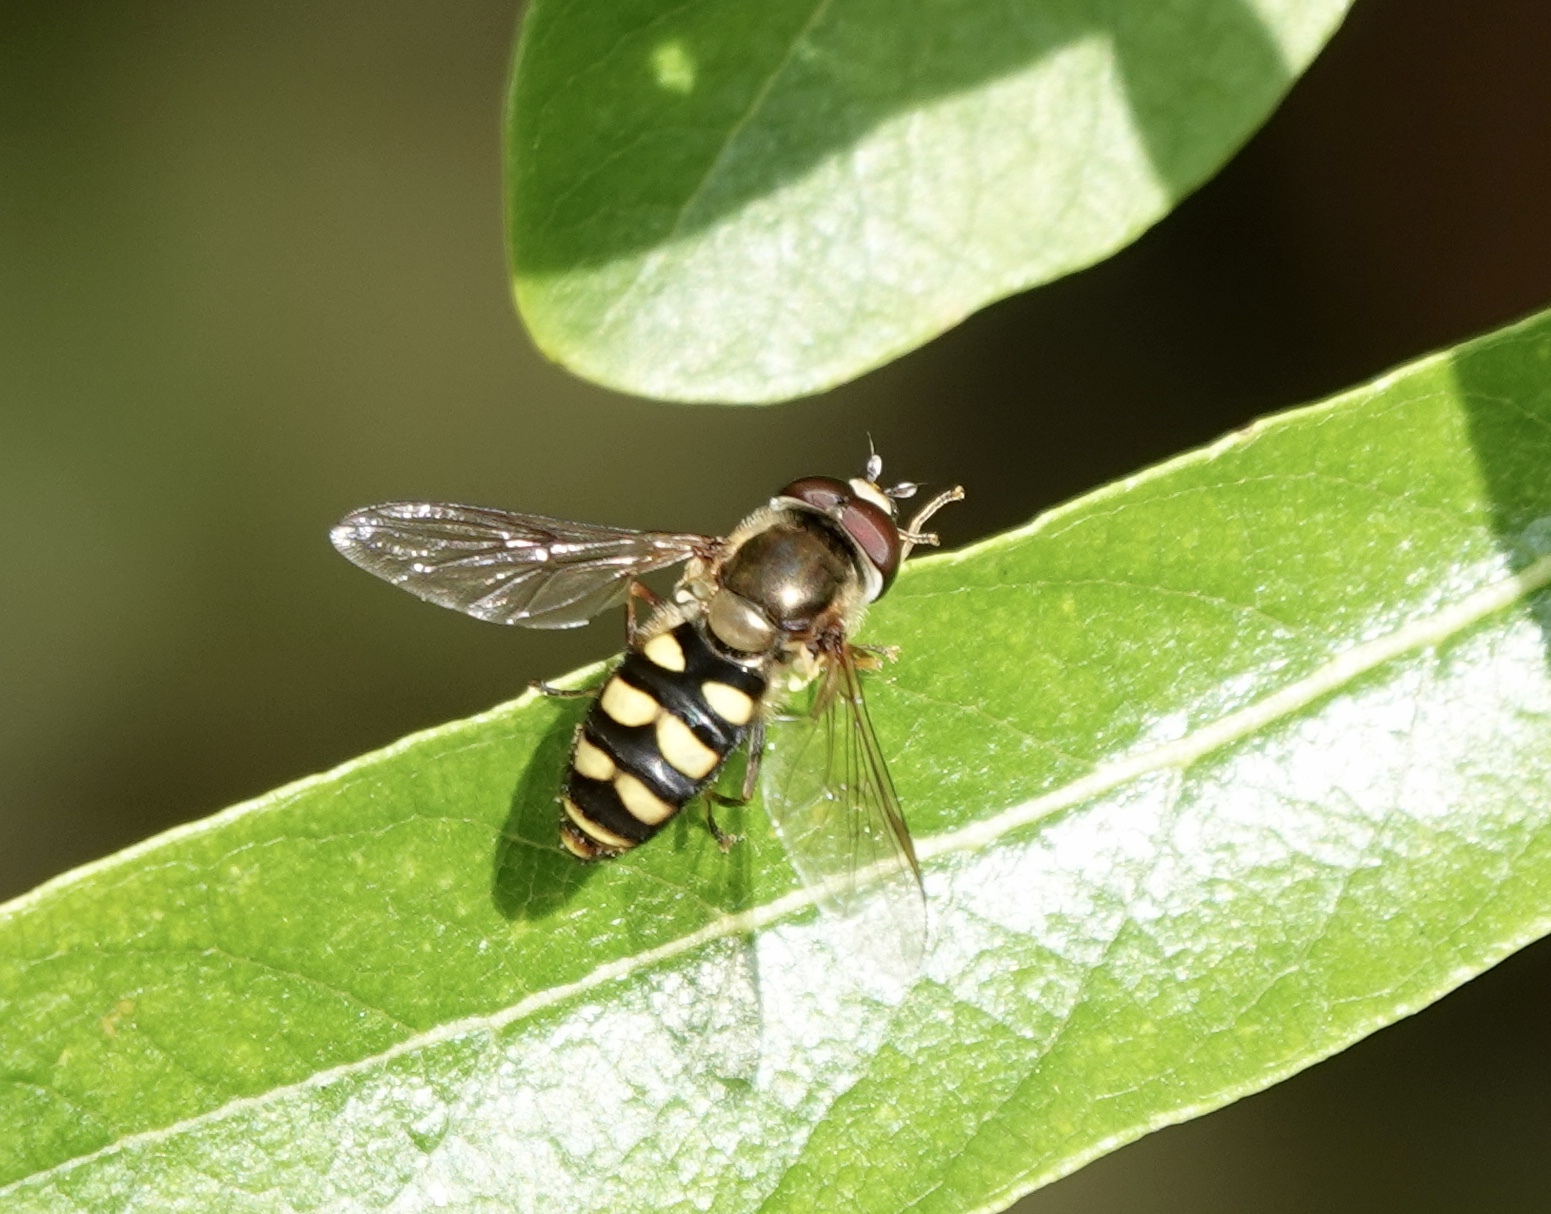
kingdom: Animalia
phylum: Arthropoda
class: Insecta
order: Diptera
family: Syrphidae
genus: Eupeodes
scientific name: Eupeodes fumipennis
